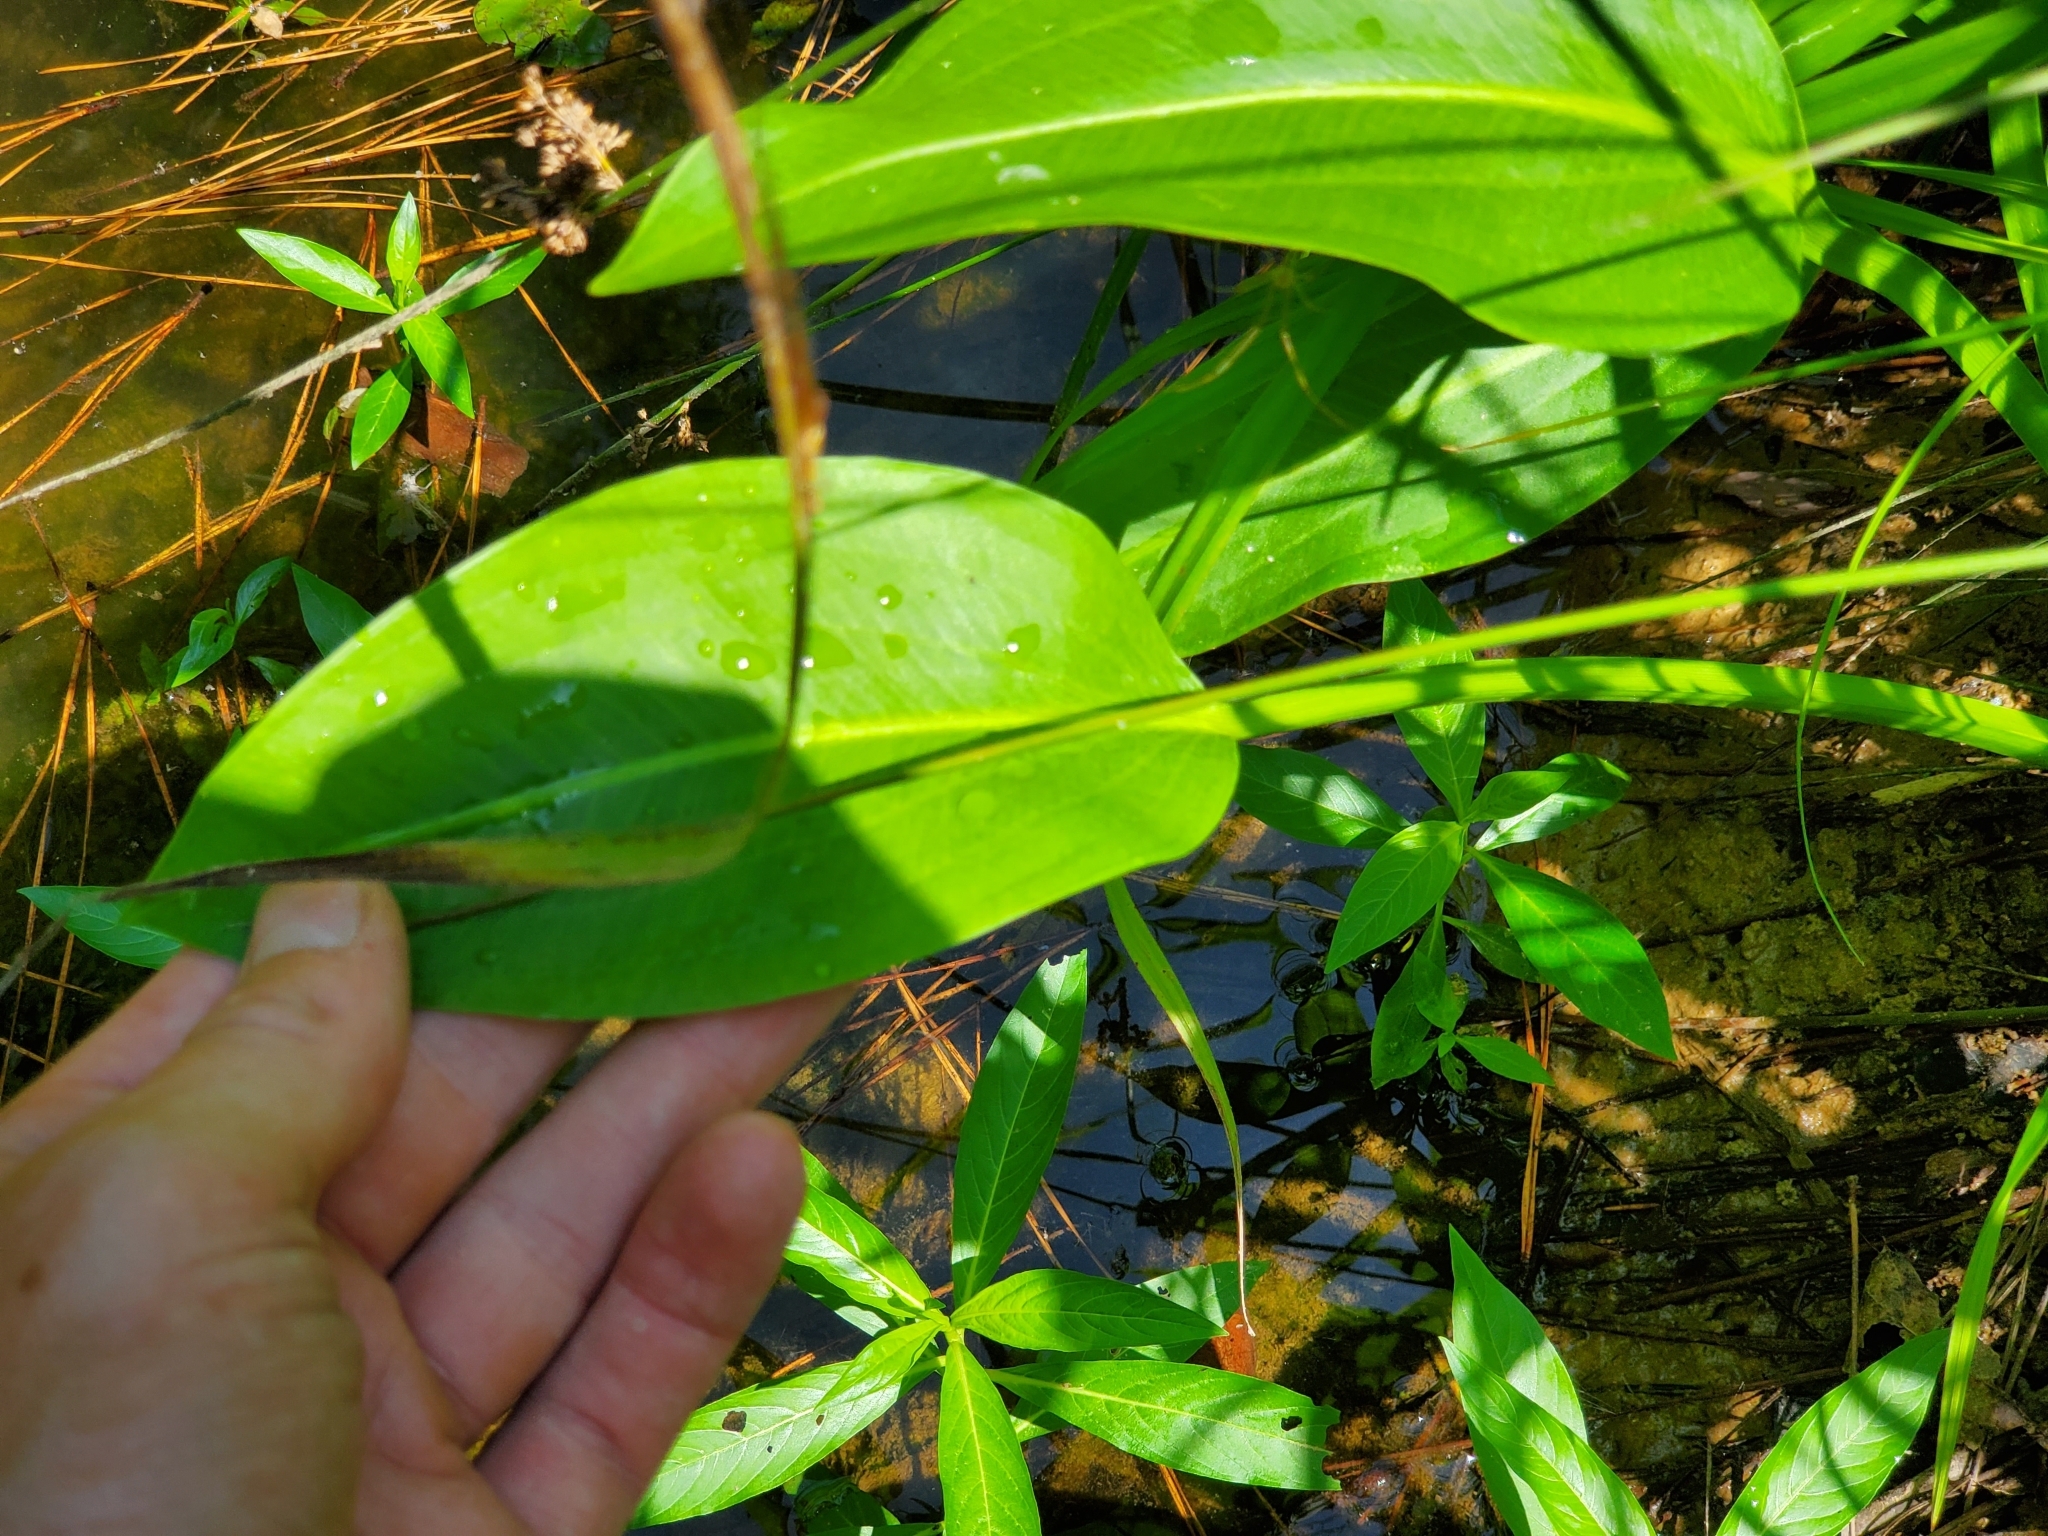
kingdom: Plantae
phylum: Tracheophyta
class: Liliopsida
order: Alismatales
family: Alismataceae
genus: Sagittaria
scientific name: Sagittaria platyphylla
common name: Broad-leaf arrowhead
